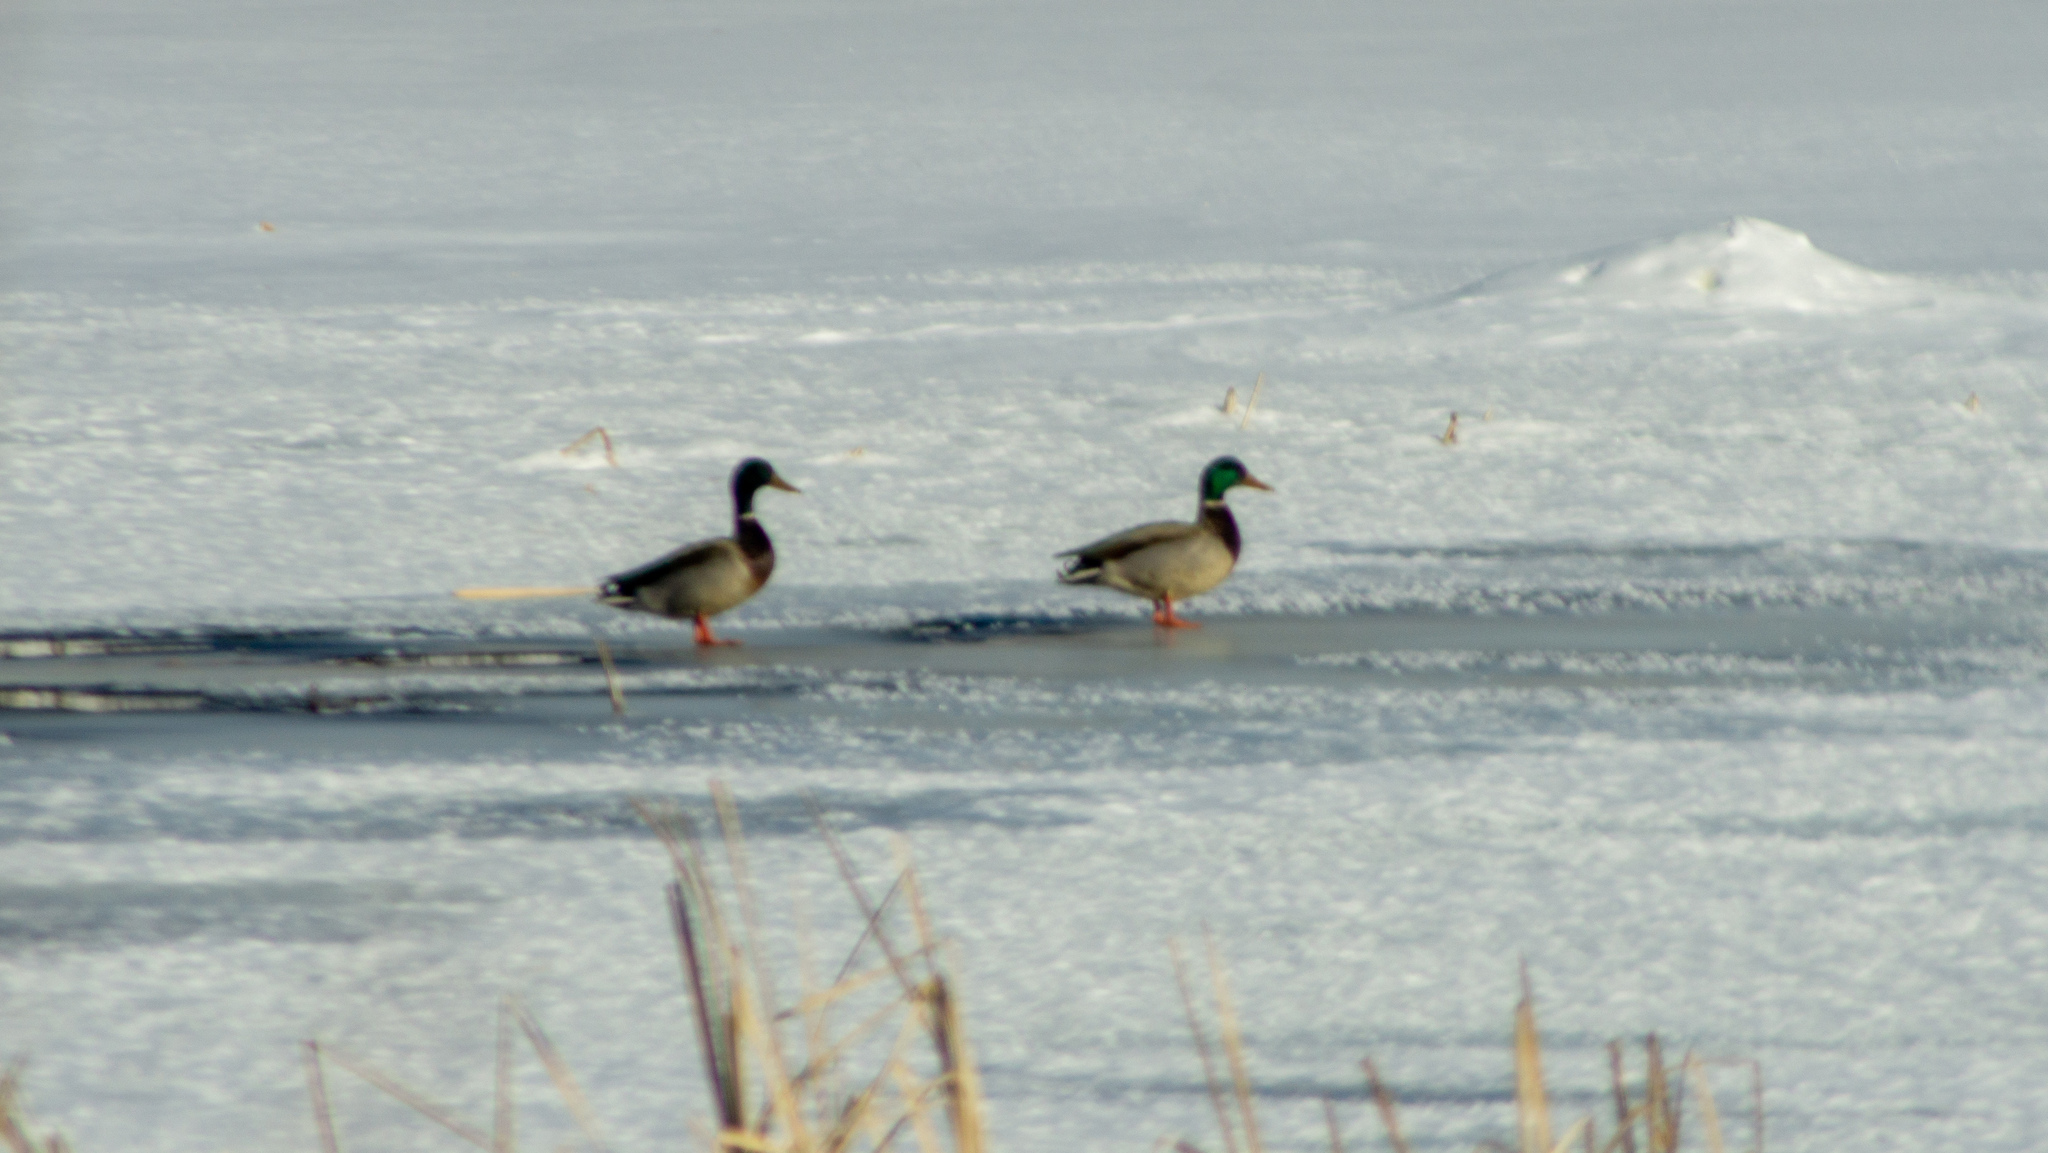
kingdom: Animalia
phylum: Chordata
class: Aves
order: Anseriformes
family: Anatidae
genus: Anas
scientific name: Anas platyrhynchos
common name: Mallard
